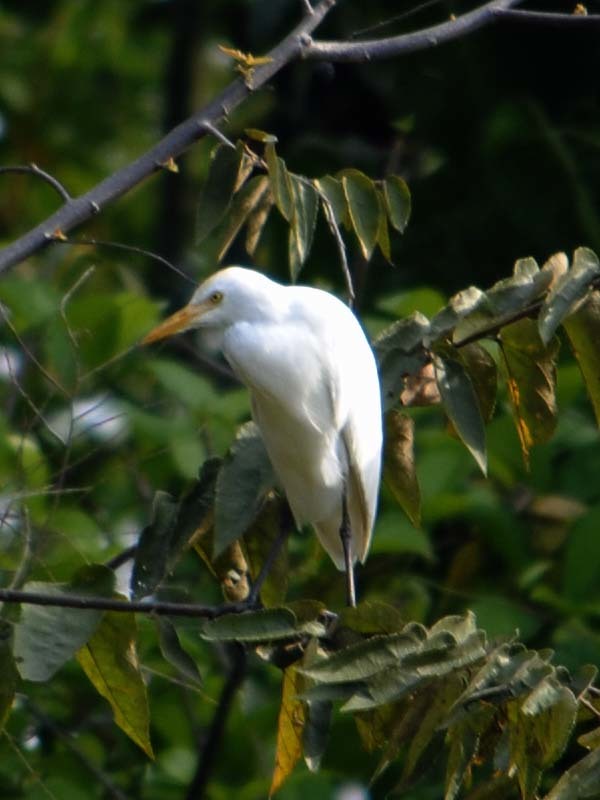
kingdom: Animalia
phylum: Chordata
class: Aves
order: Pelecaniformes
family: Ardeidae
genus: Bubulcus
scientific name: Bubulcus ibis
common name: Cattle egret
